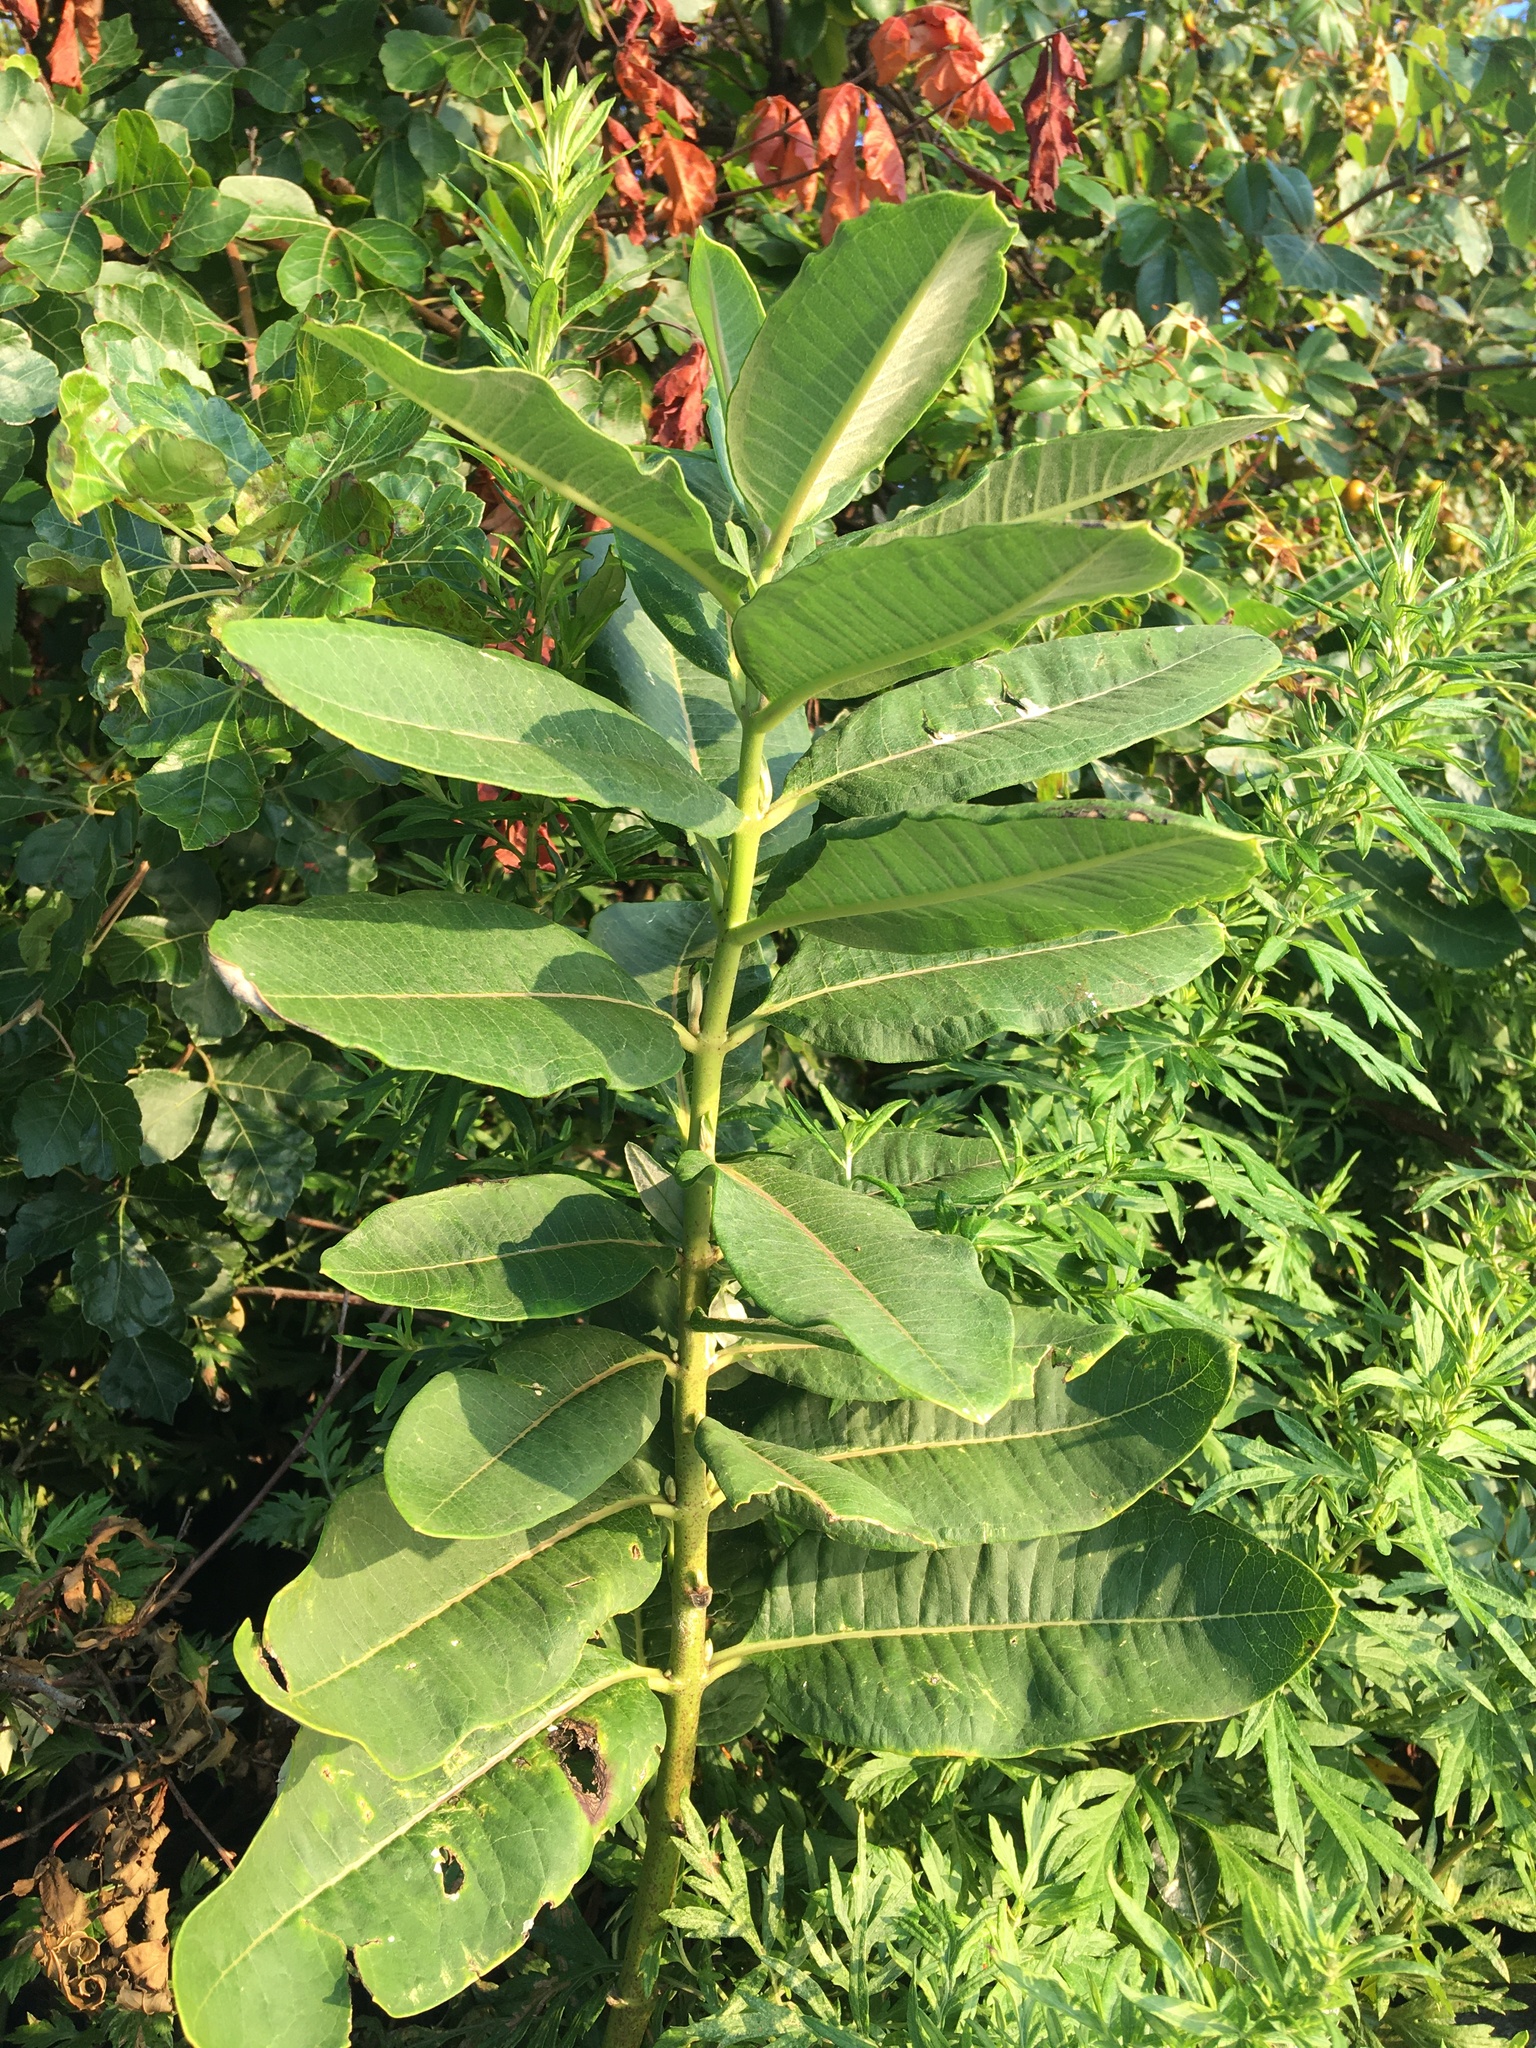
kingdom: Plantae
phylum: Tracheophyta
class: Magnoliopsida
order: Gentianales
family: Apocynaceae
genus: Asclepias
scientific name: Asclepias syriaca
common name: Common milkweed
